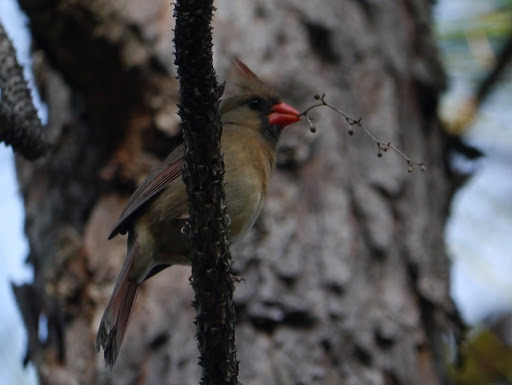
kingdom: Animalia
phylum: Chordata
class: Aves
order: Passeriformes
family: Cardinalidae
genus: Cardinalis
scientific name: Cardinalis cardinalis
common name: Northern cardinal
